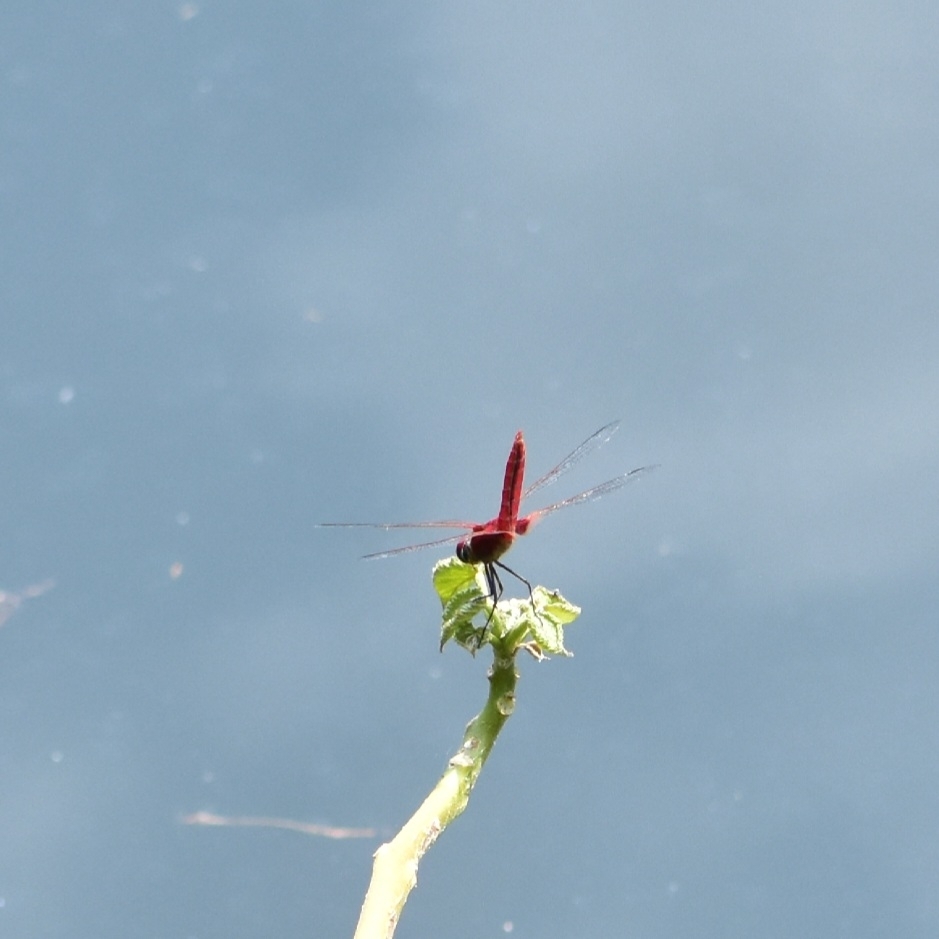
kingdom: Animalia
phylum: Arthropoda
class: Insecta
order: Odonata
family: Libellulidae
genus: Urothemis
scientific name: Urothemis signata
